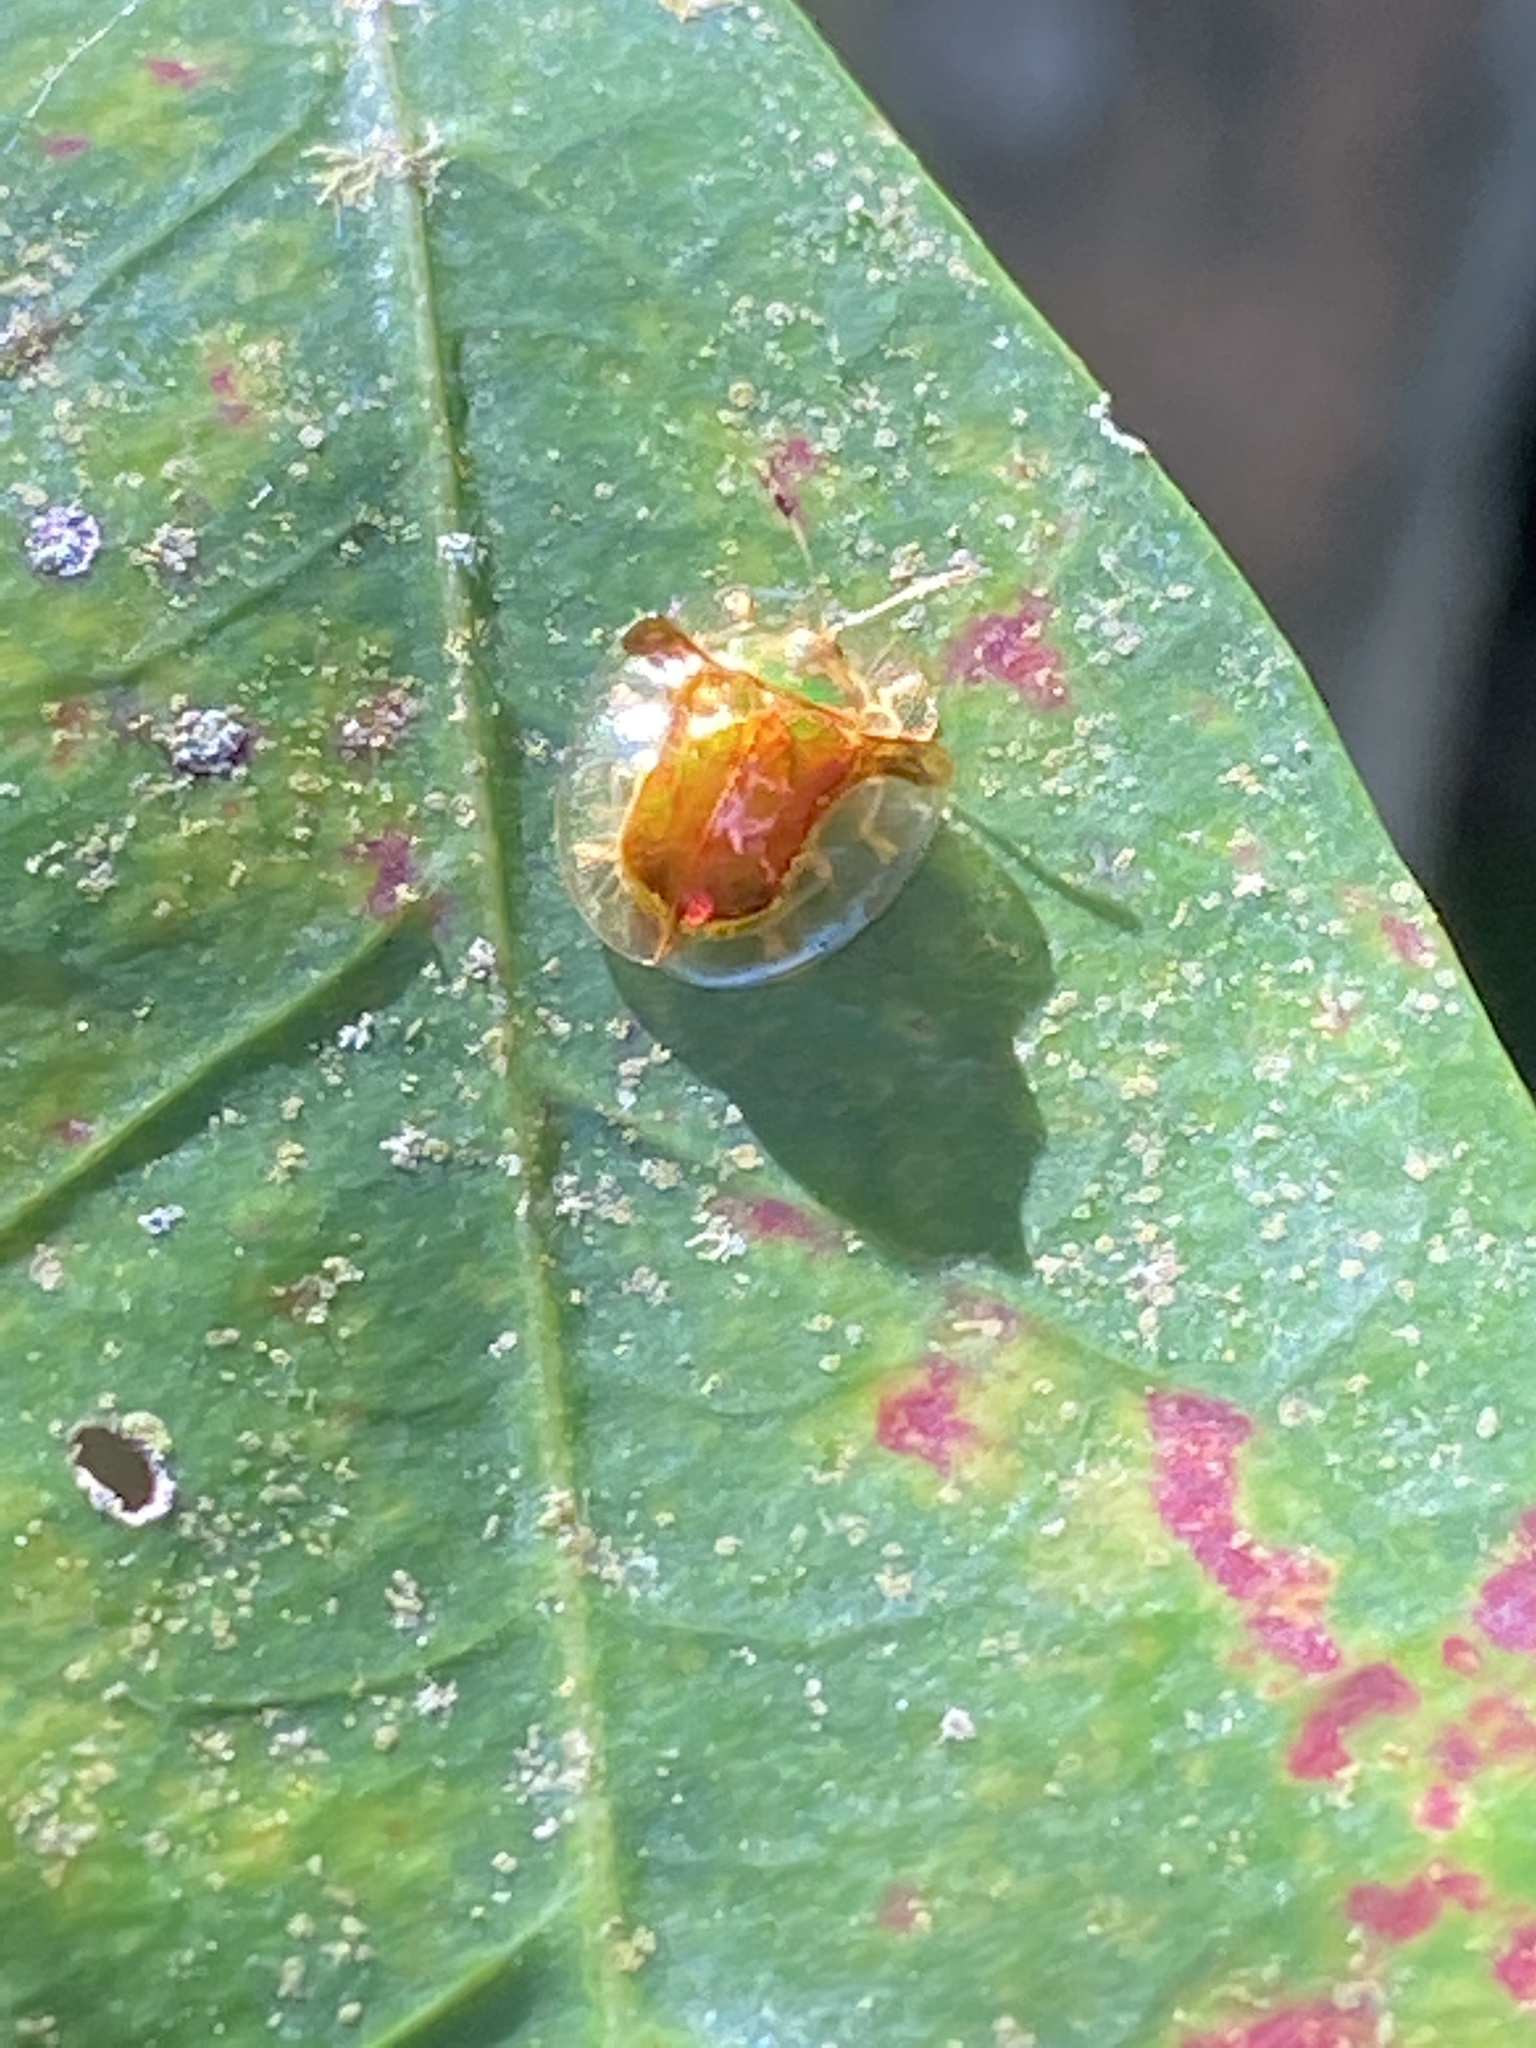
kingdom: Animalia
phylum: Arthropoda
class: Insecta
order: Coleoptera
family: Chrysomelidae
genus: Aspidimorpha
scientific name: Aspidimorpha furcata
